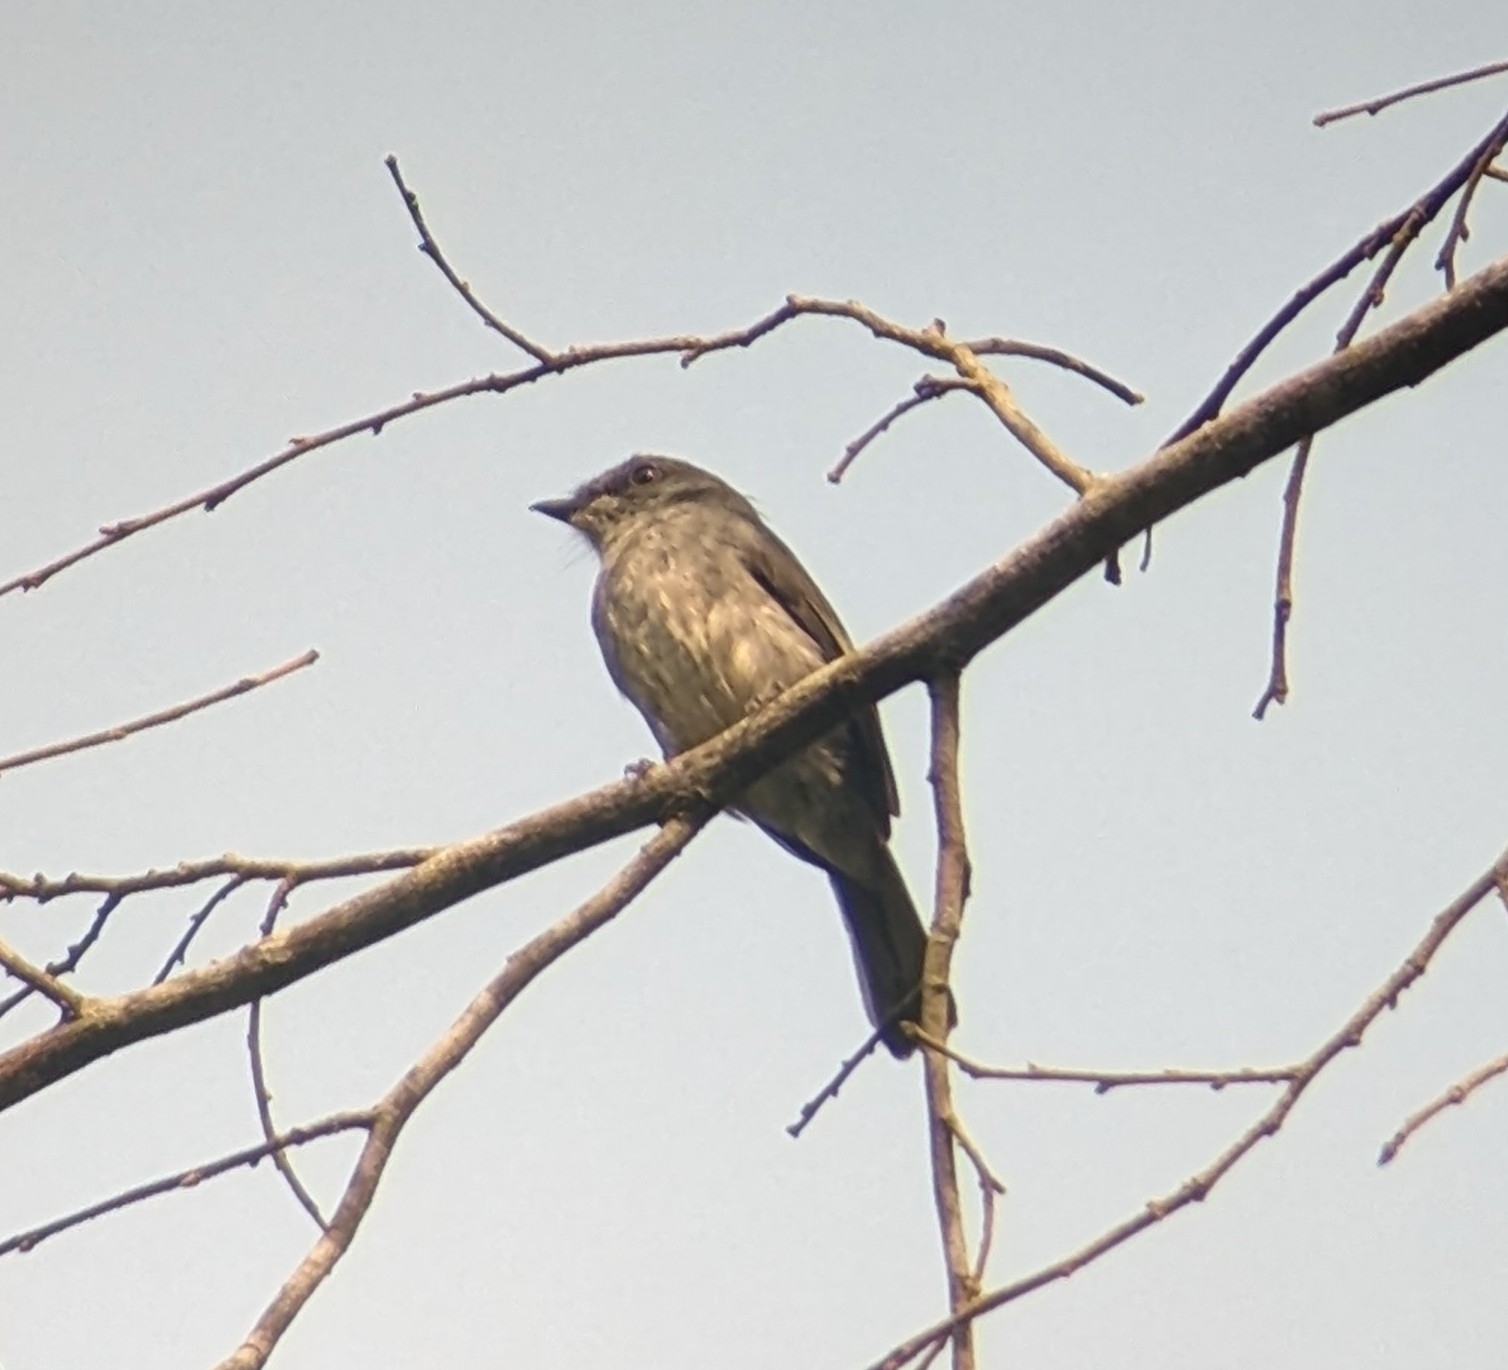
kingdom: Animalia
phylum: Chordata
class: Aves
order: Passeriformes
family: Muscicapidae
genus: Fraseria
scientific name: Fraseria tessmanni
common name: Tessmann's flycatcher
